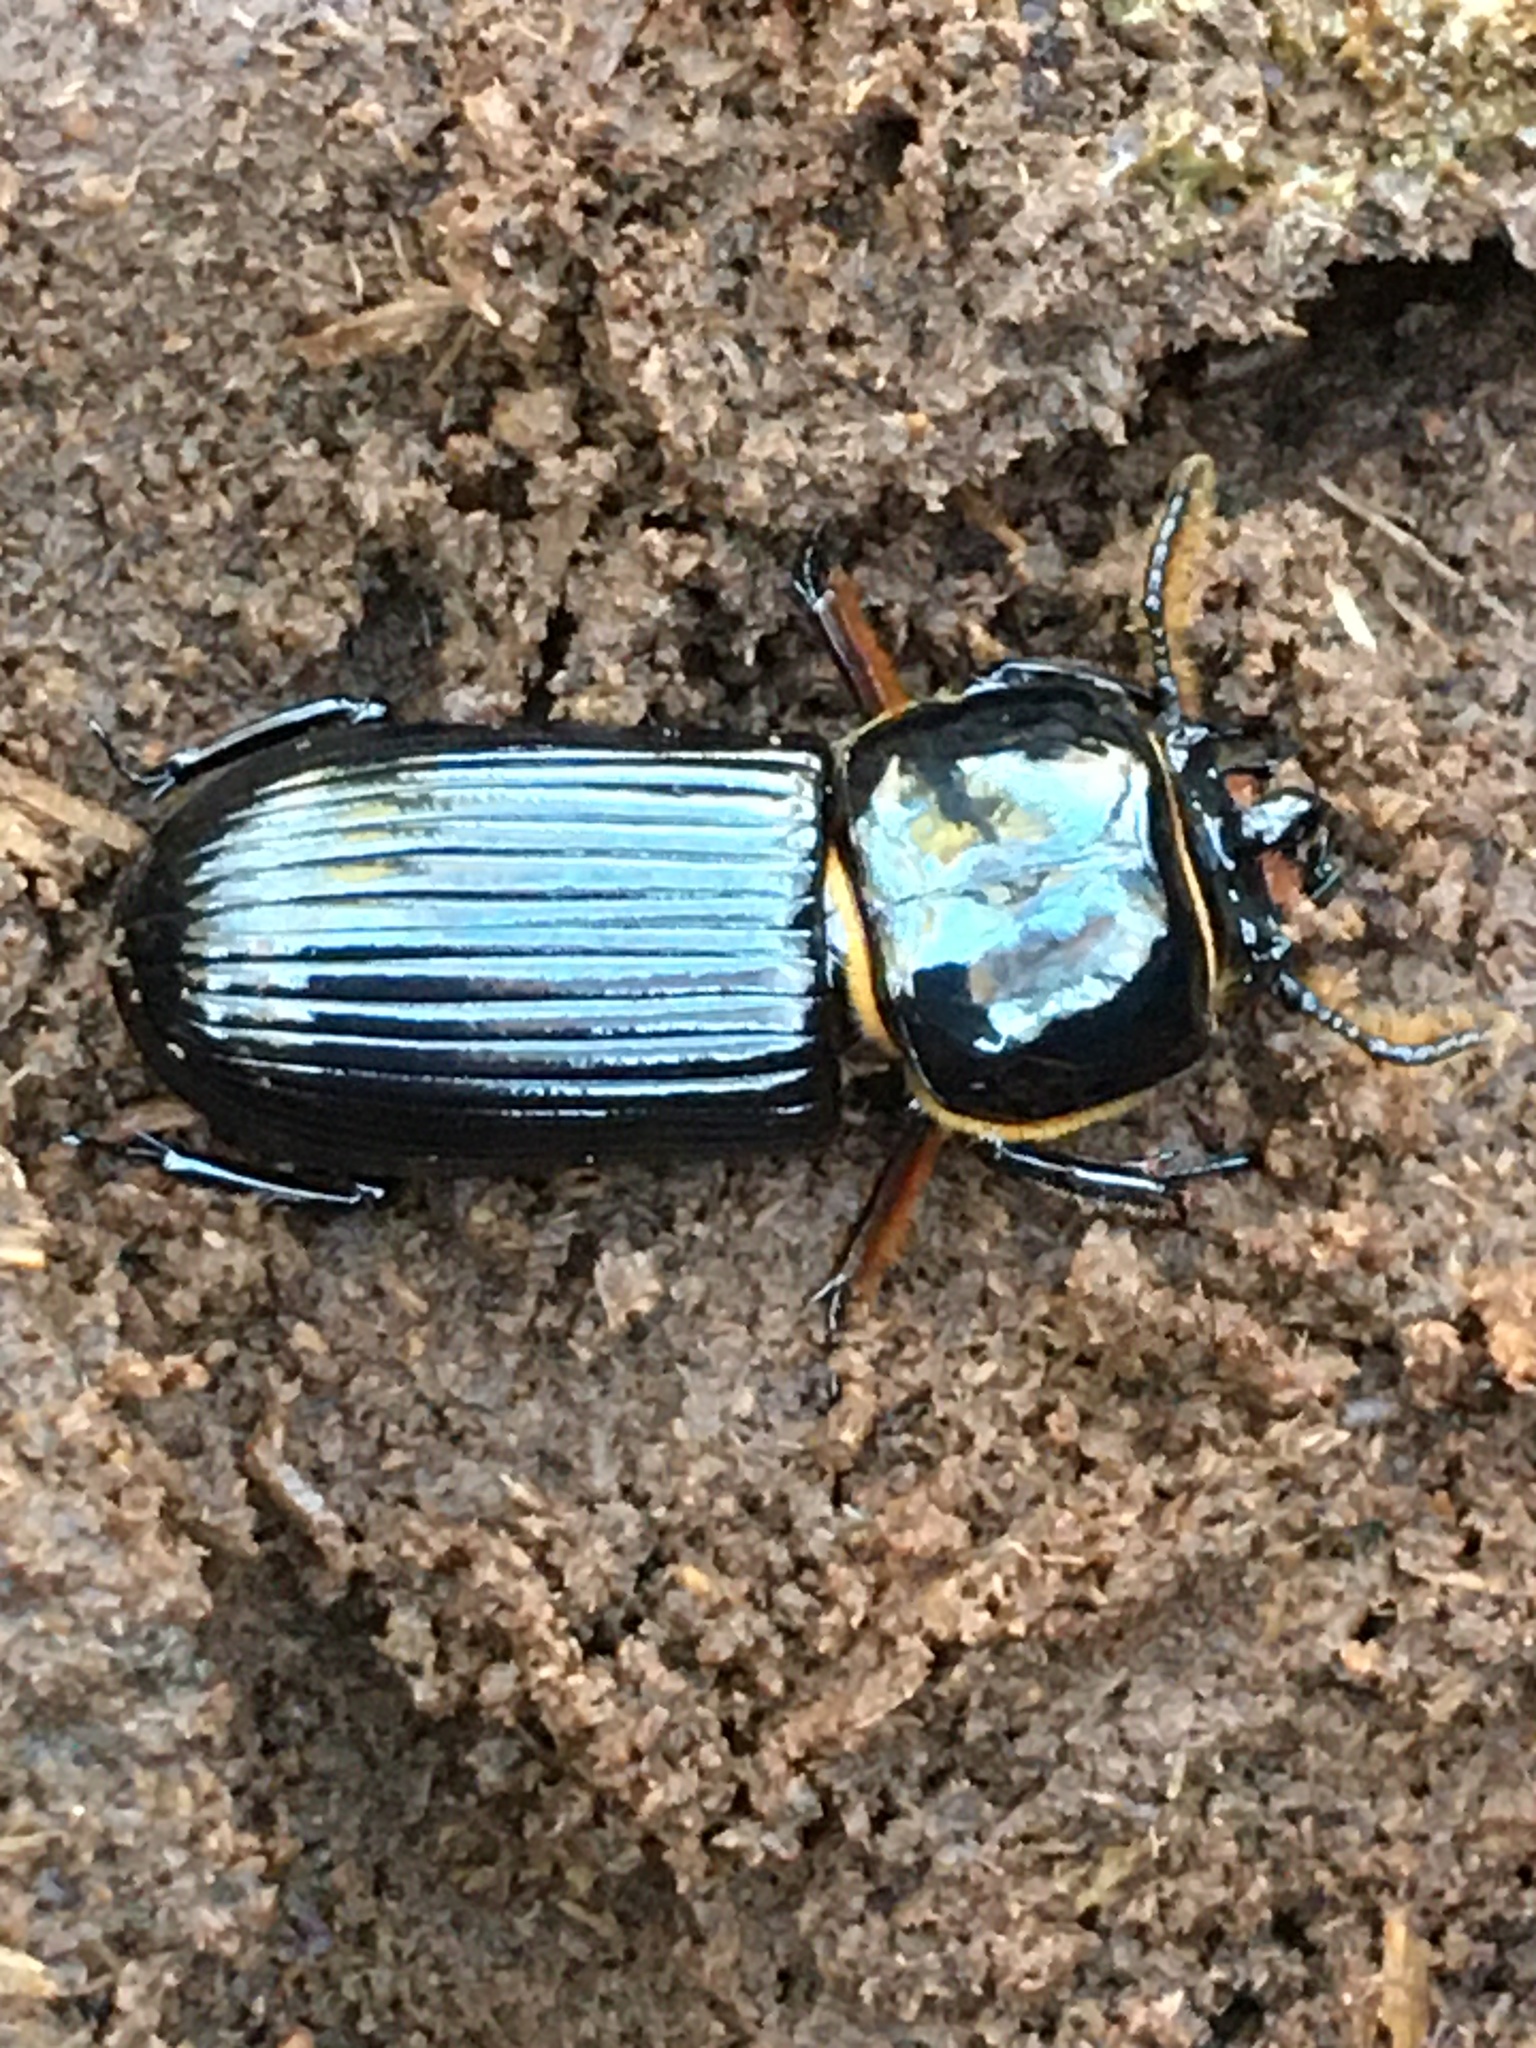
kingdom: Animalia
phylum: Arthropoda
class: Insecta
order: Coleoptera
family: Passalidae
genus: Odontotaenius
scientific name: Odontotaenius disjunctus
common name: Patent leather beetle
